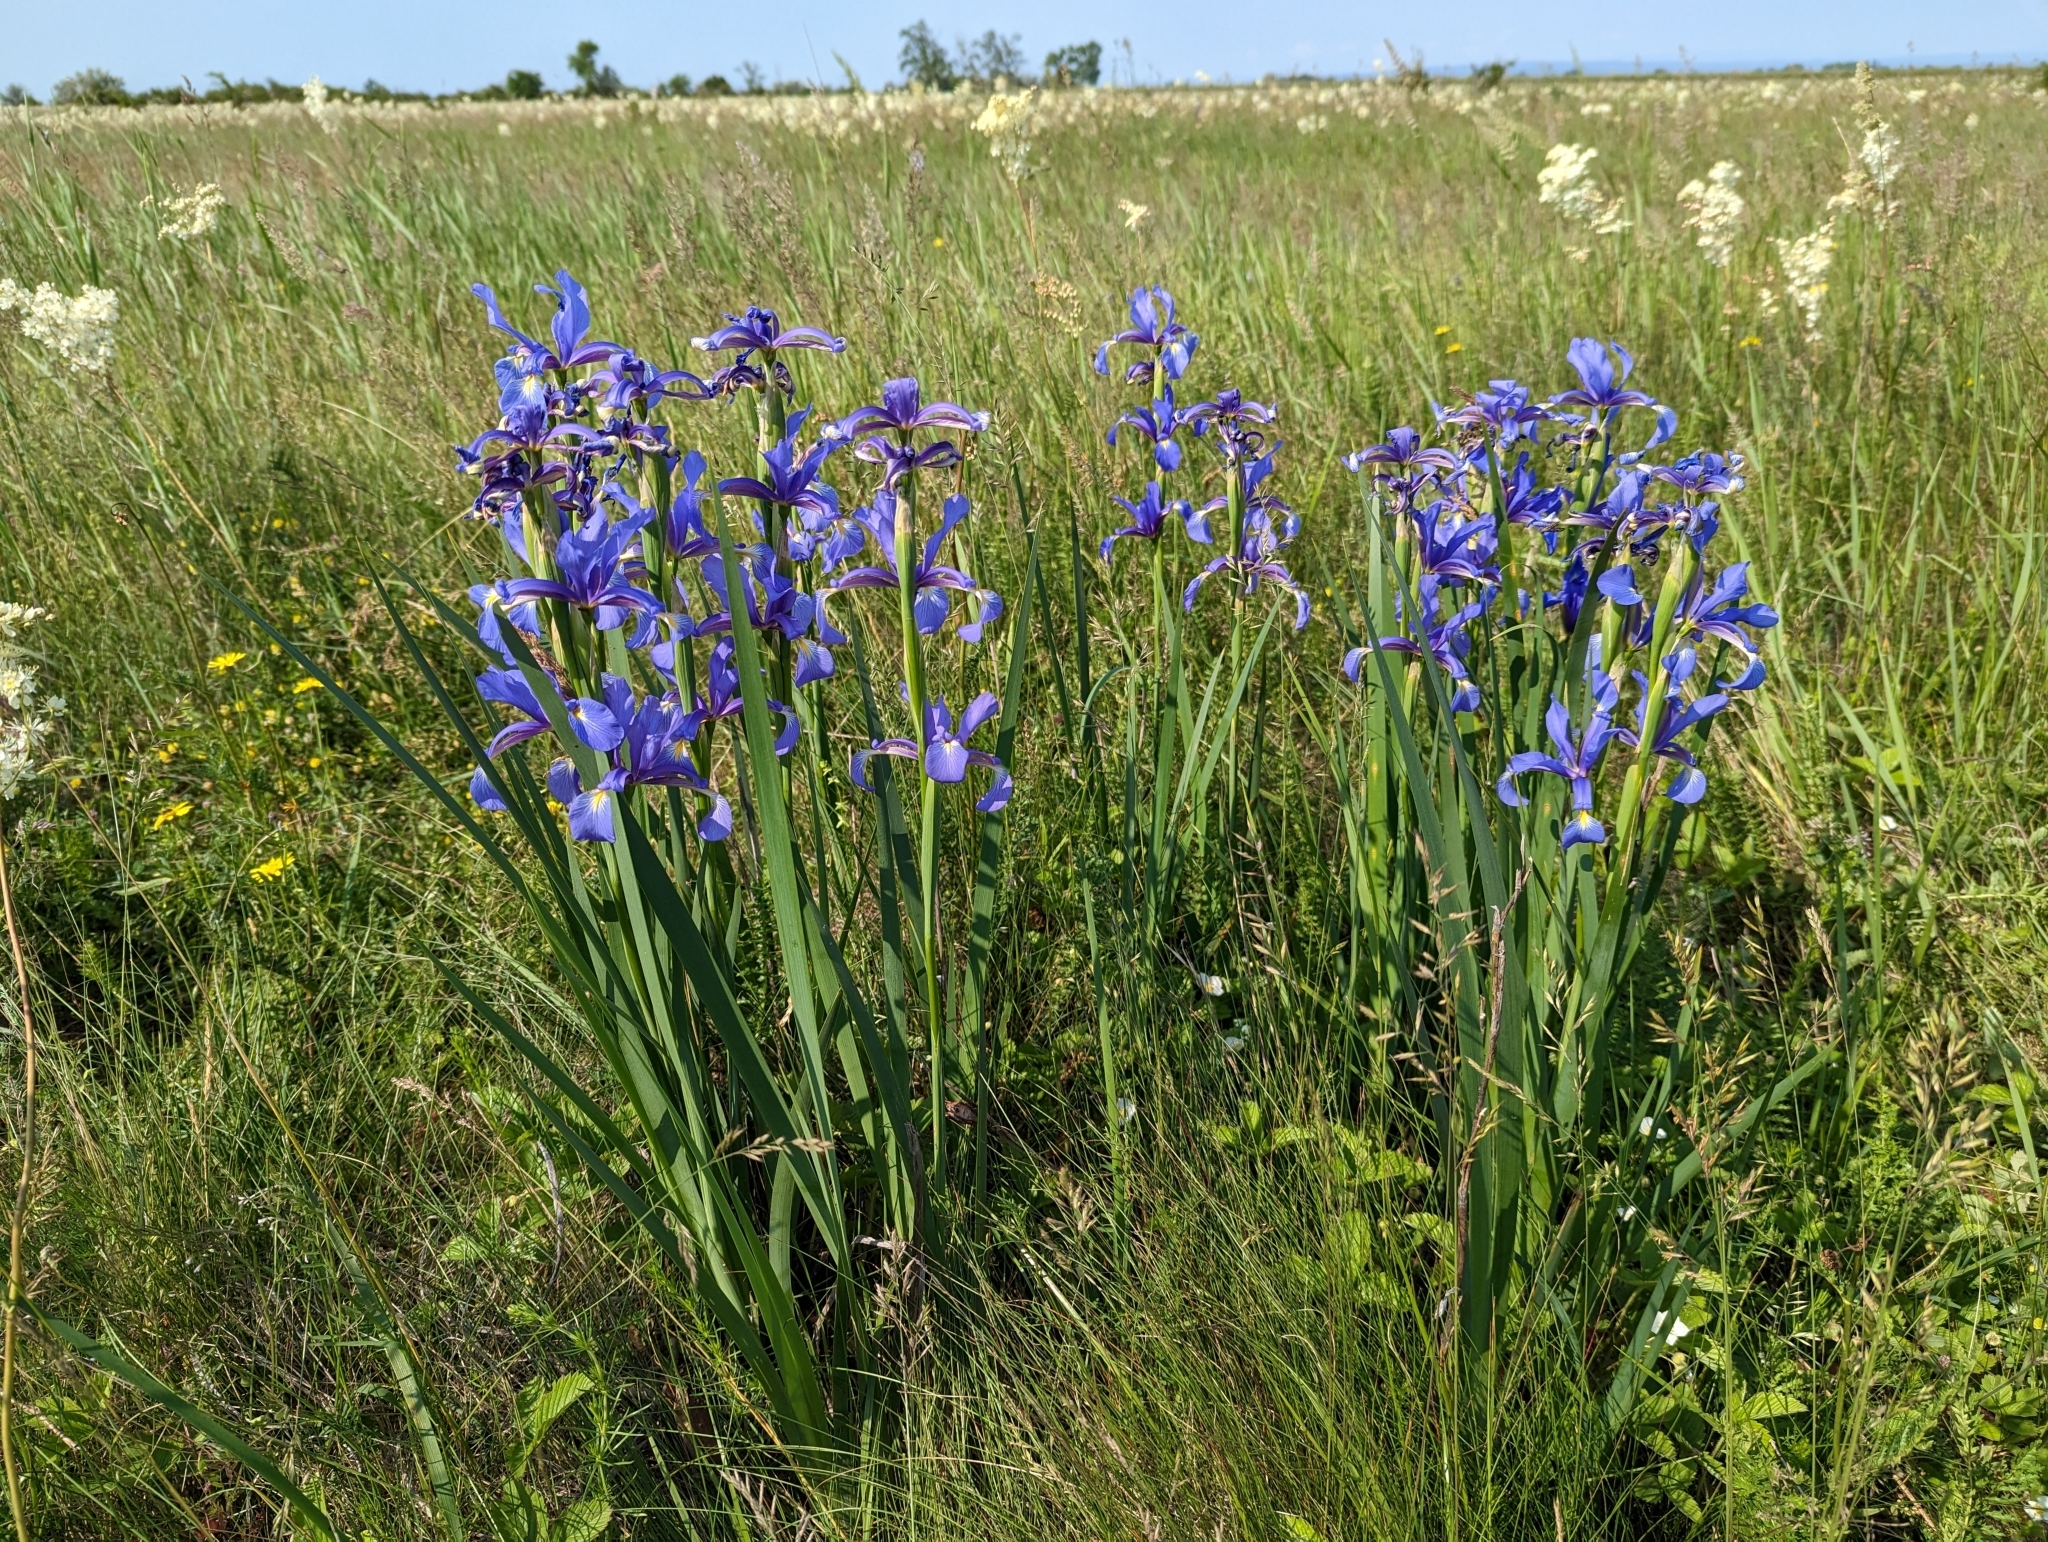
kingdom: Plantae
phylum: Tracheophyta
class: Liliopsida
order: Asparagales
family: Iridaceae
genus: Iris
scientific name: Iris spuria
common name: Blue iris
